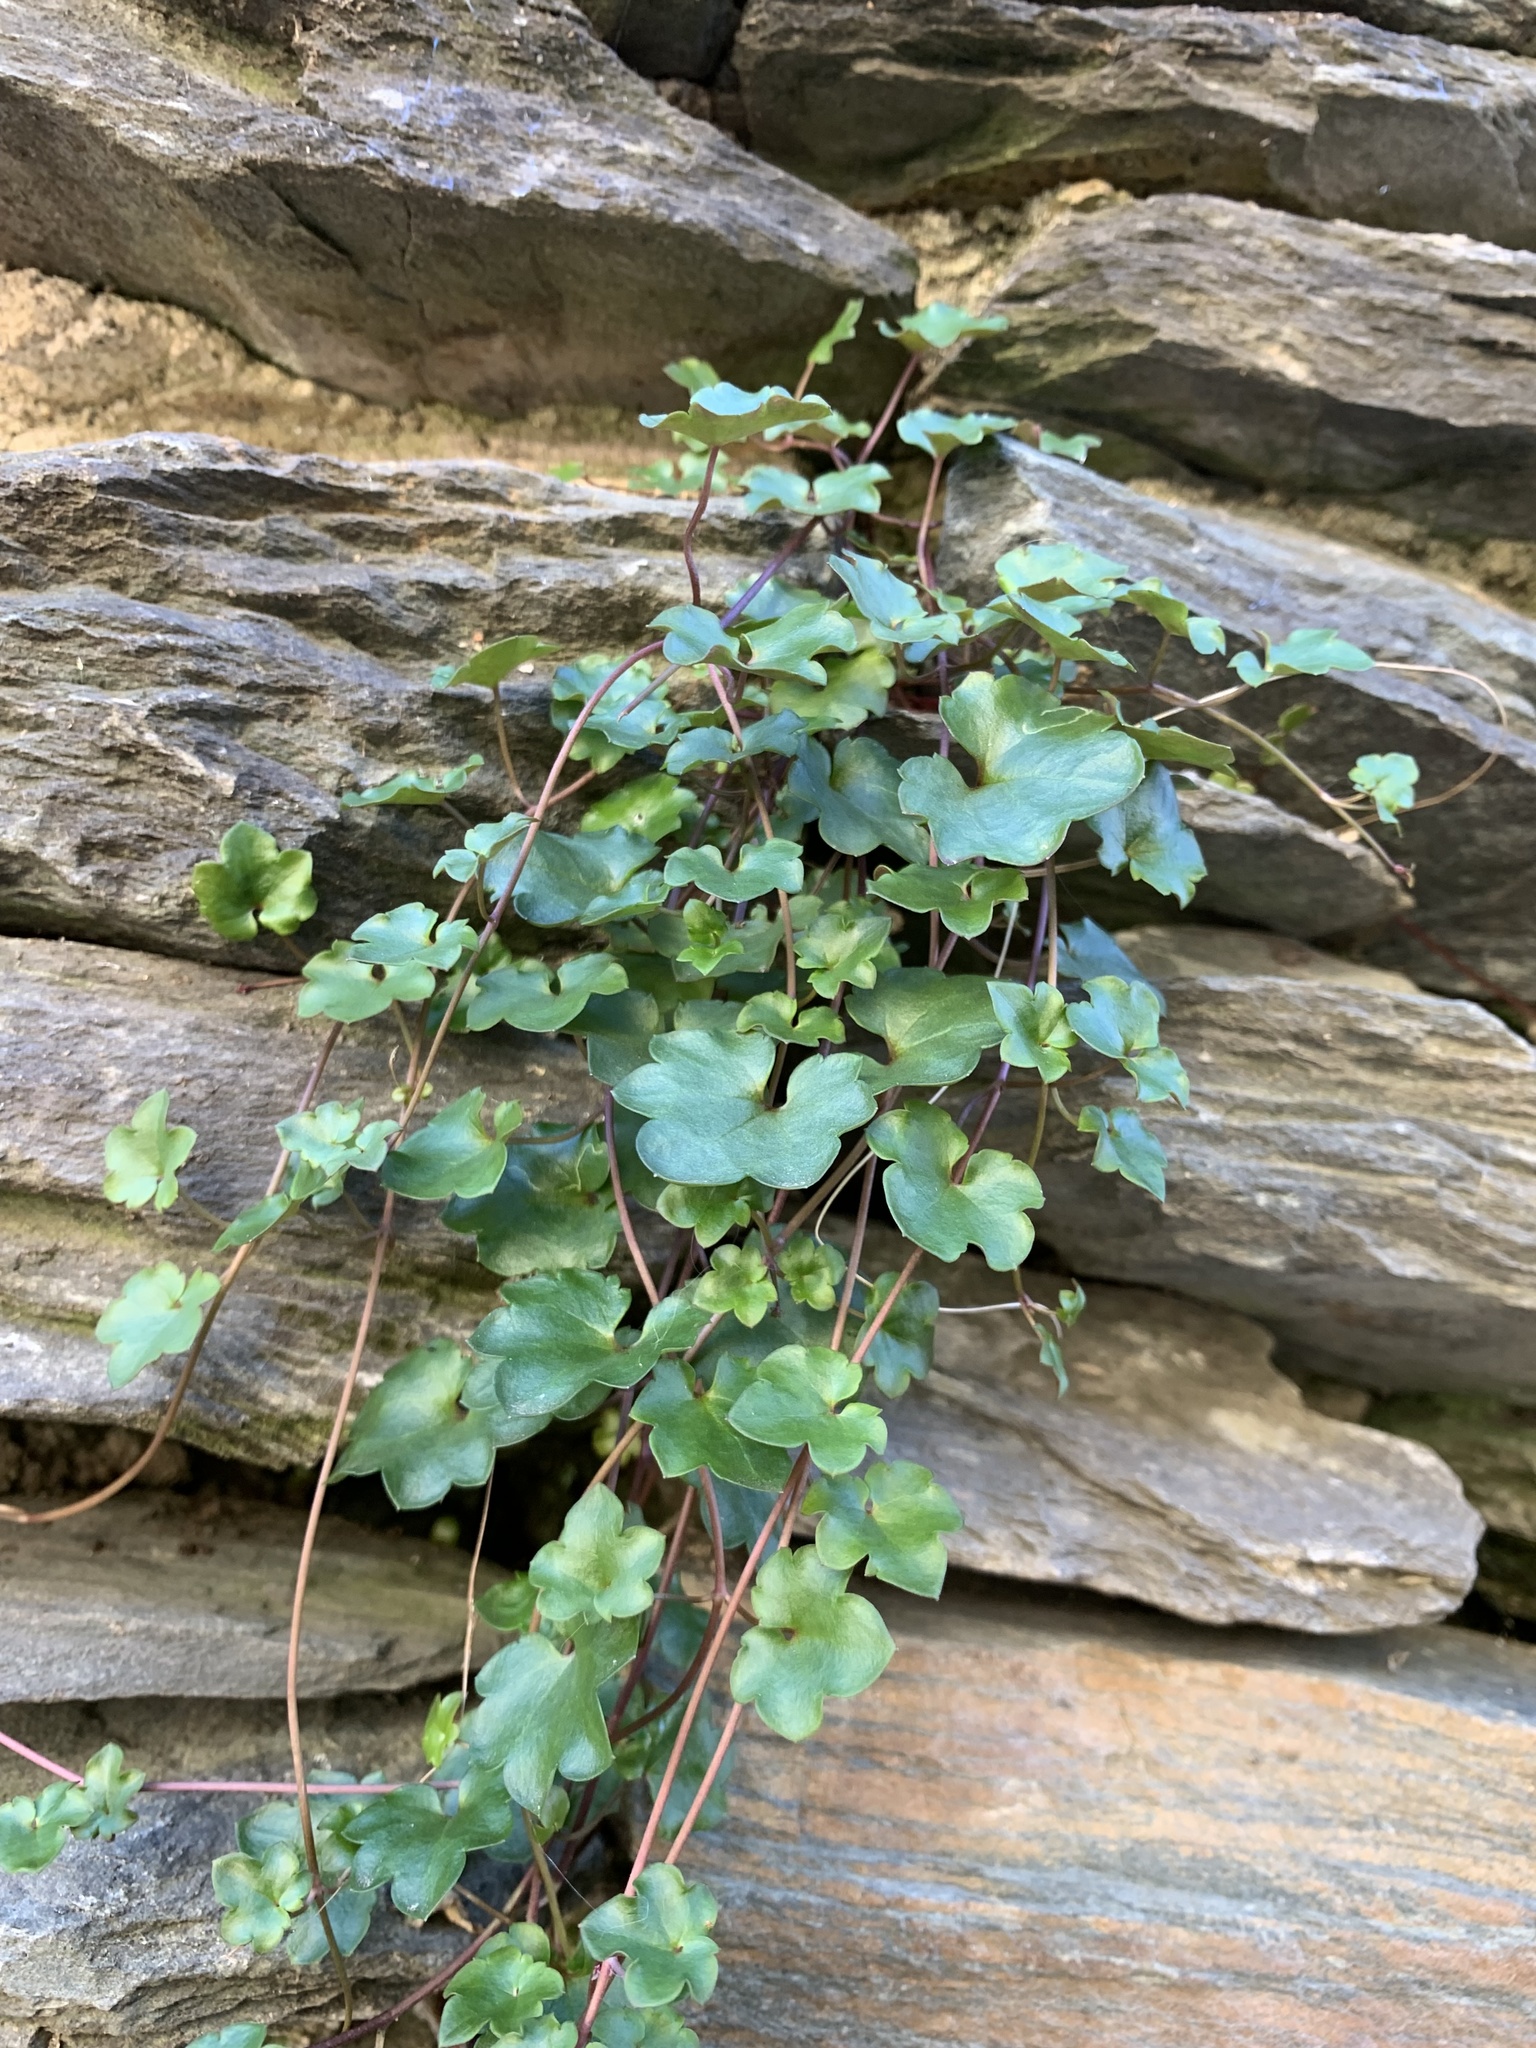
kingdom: Plantae
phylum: Tracheophyta
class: Magnoliopsida
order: Lamiales
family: Plantaginaceae
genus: Cymbalaria
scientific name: Cymbalaria muralis
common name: Ivy-leaved toadflax
